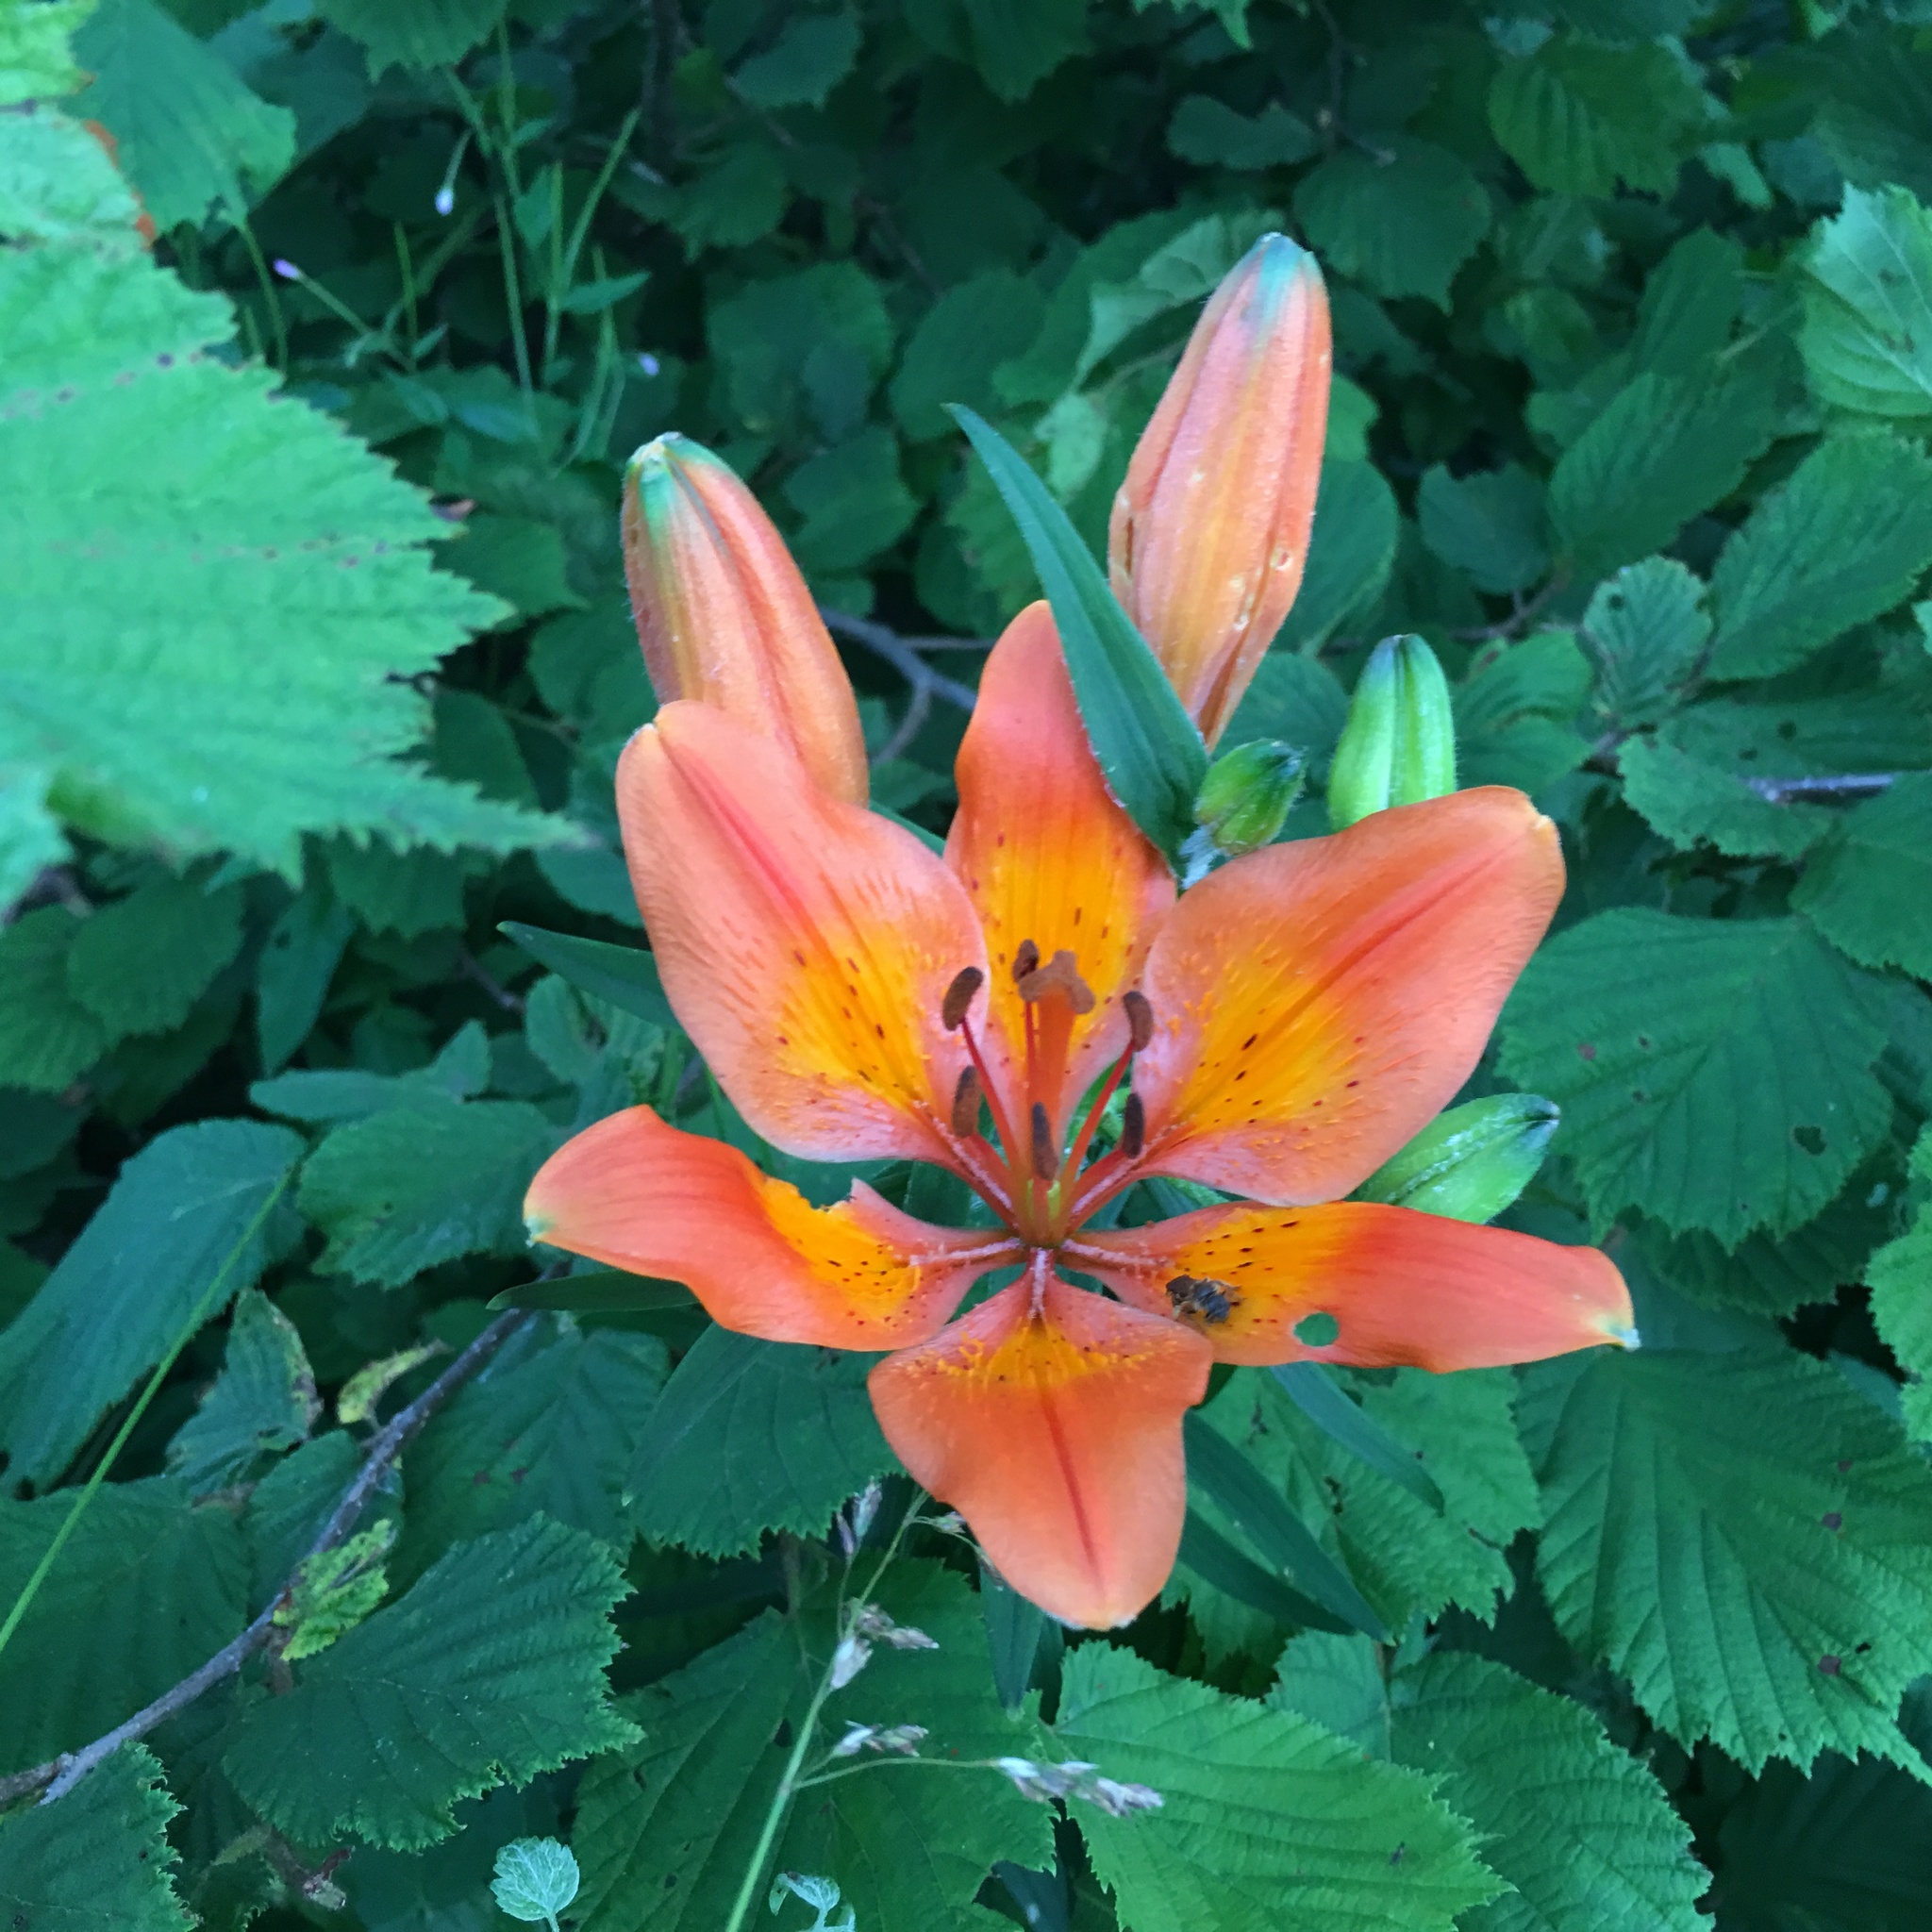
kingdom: Plantae
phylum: Tracheophyta
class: Liliopsida
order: Liliales
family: Liliaceae
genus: Lilium
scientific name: Lilium bulbiferum
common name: Orange lily
